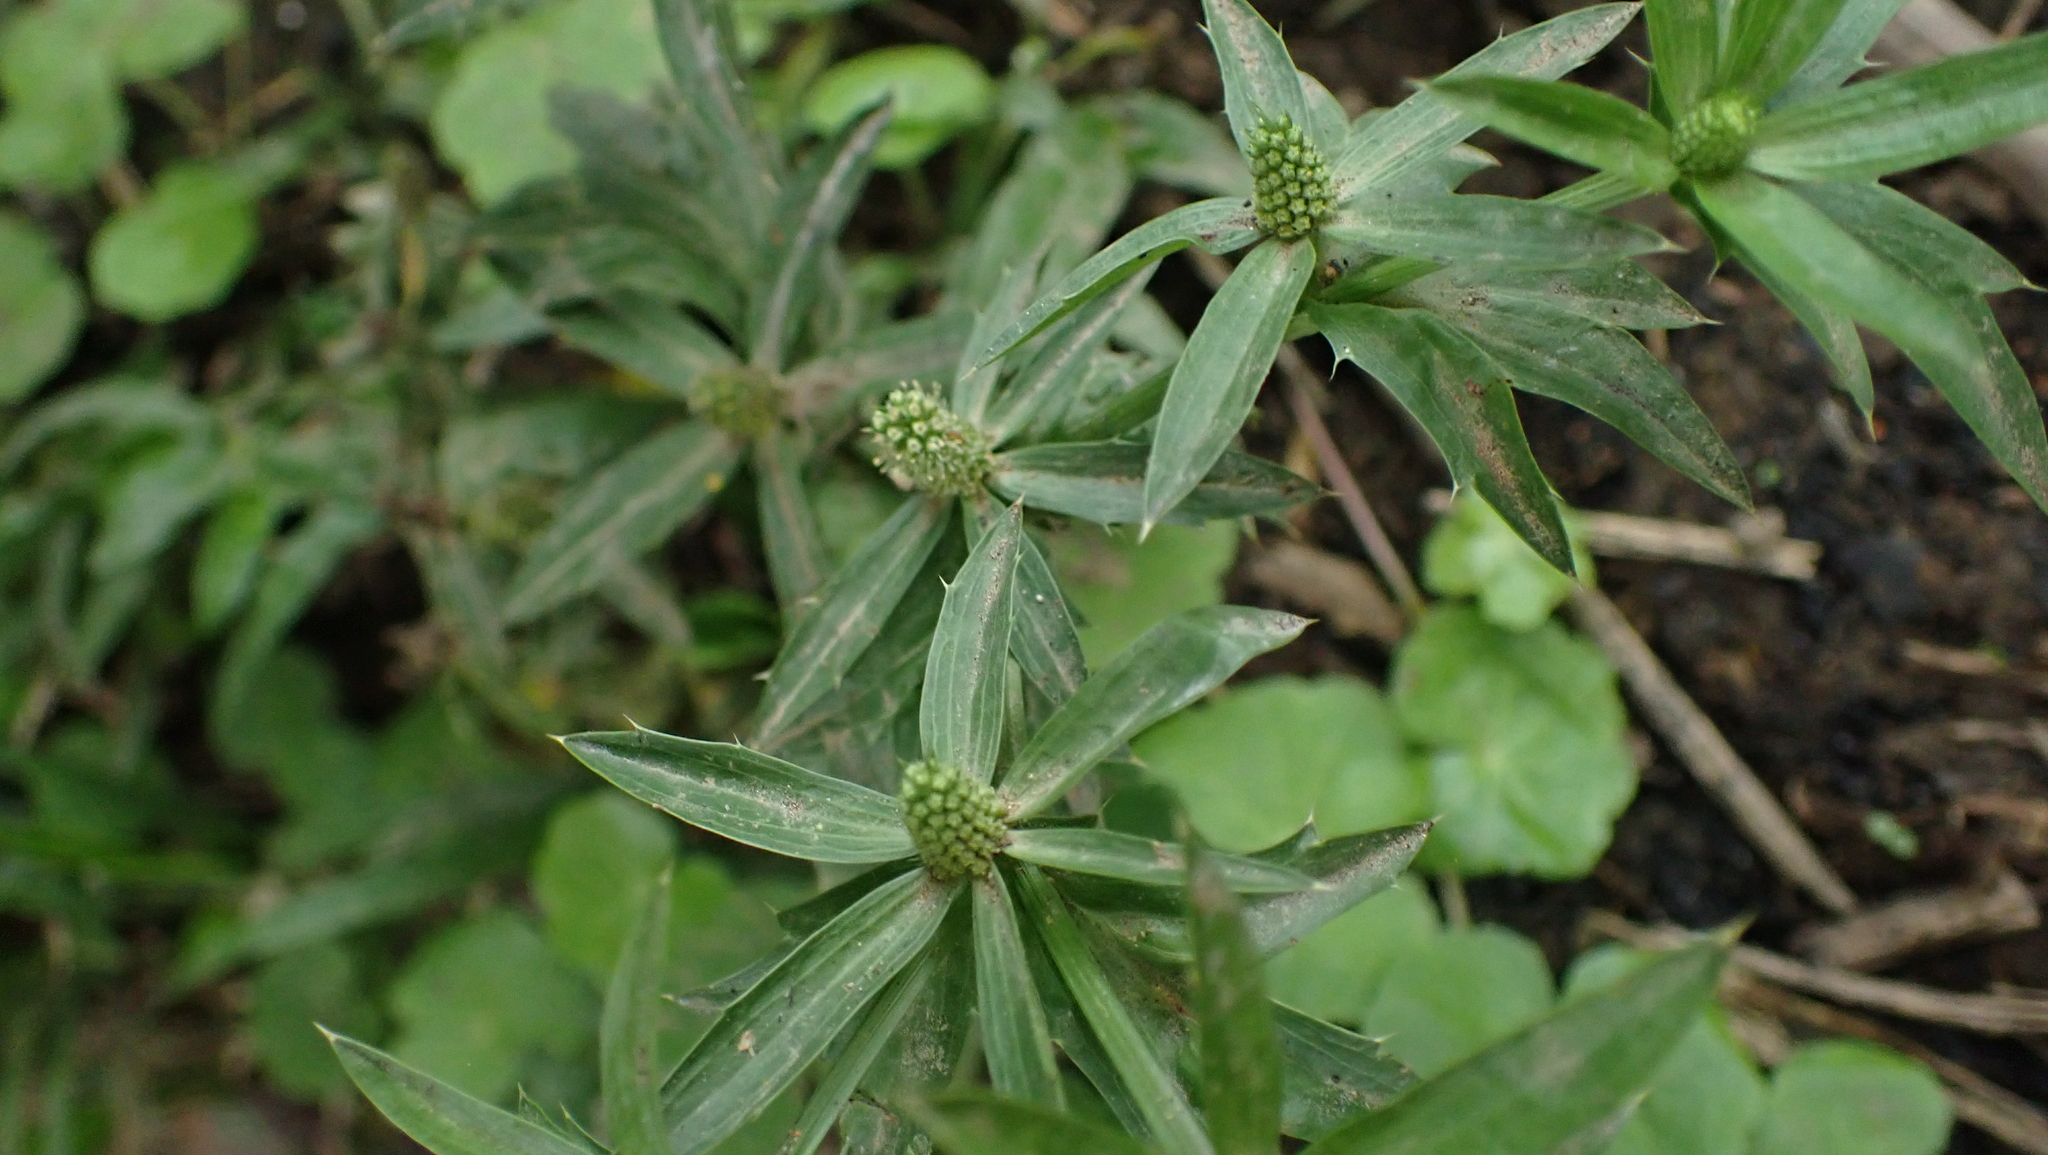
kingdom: Plantae
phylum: Tracheophyta
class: Magnoliopsida
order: Apiales
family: Apiaceae
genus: Eryngium
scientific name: Eryngium foetidum
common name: Fitweed
